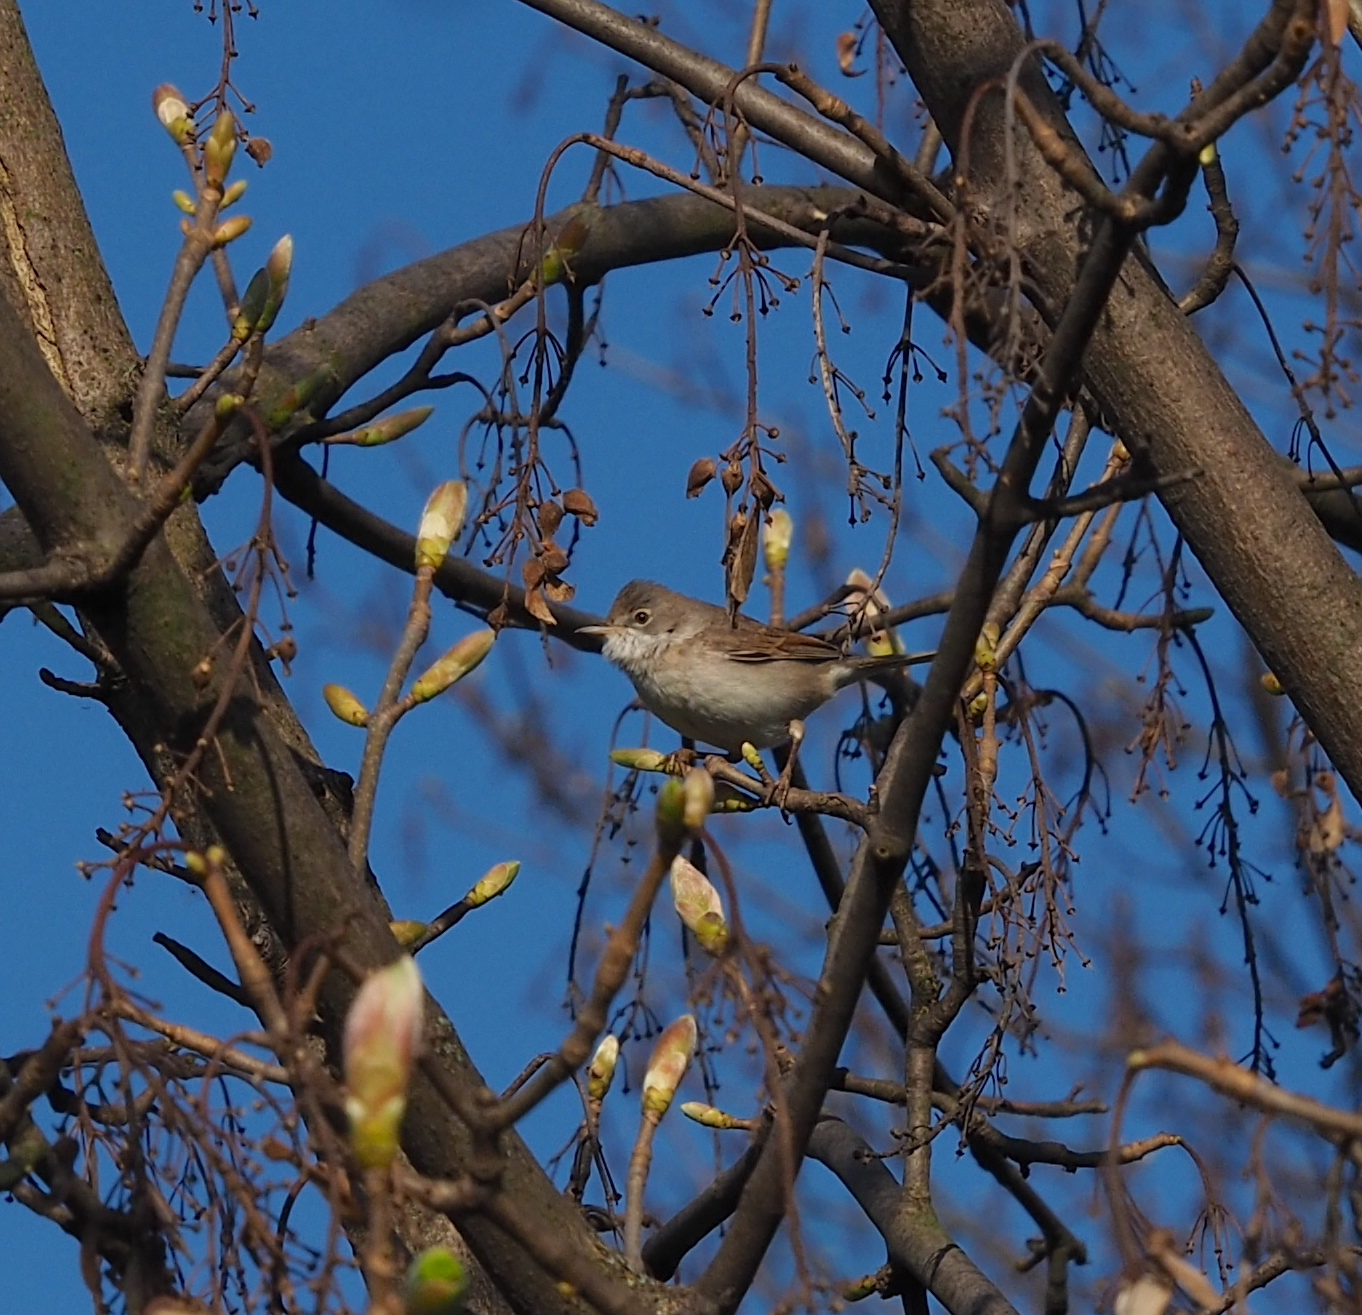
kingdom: Animalia
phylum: Chordata
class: Aves
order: Passeriformes
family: Sylviidae
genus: Sylvia
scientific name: Sylvia communis
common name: Common whitethroat
